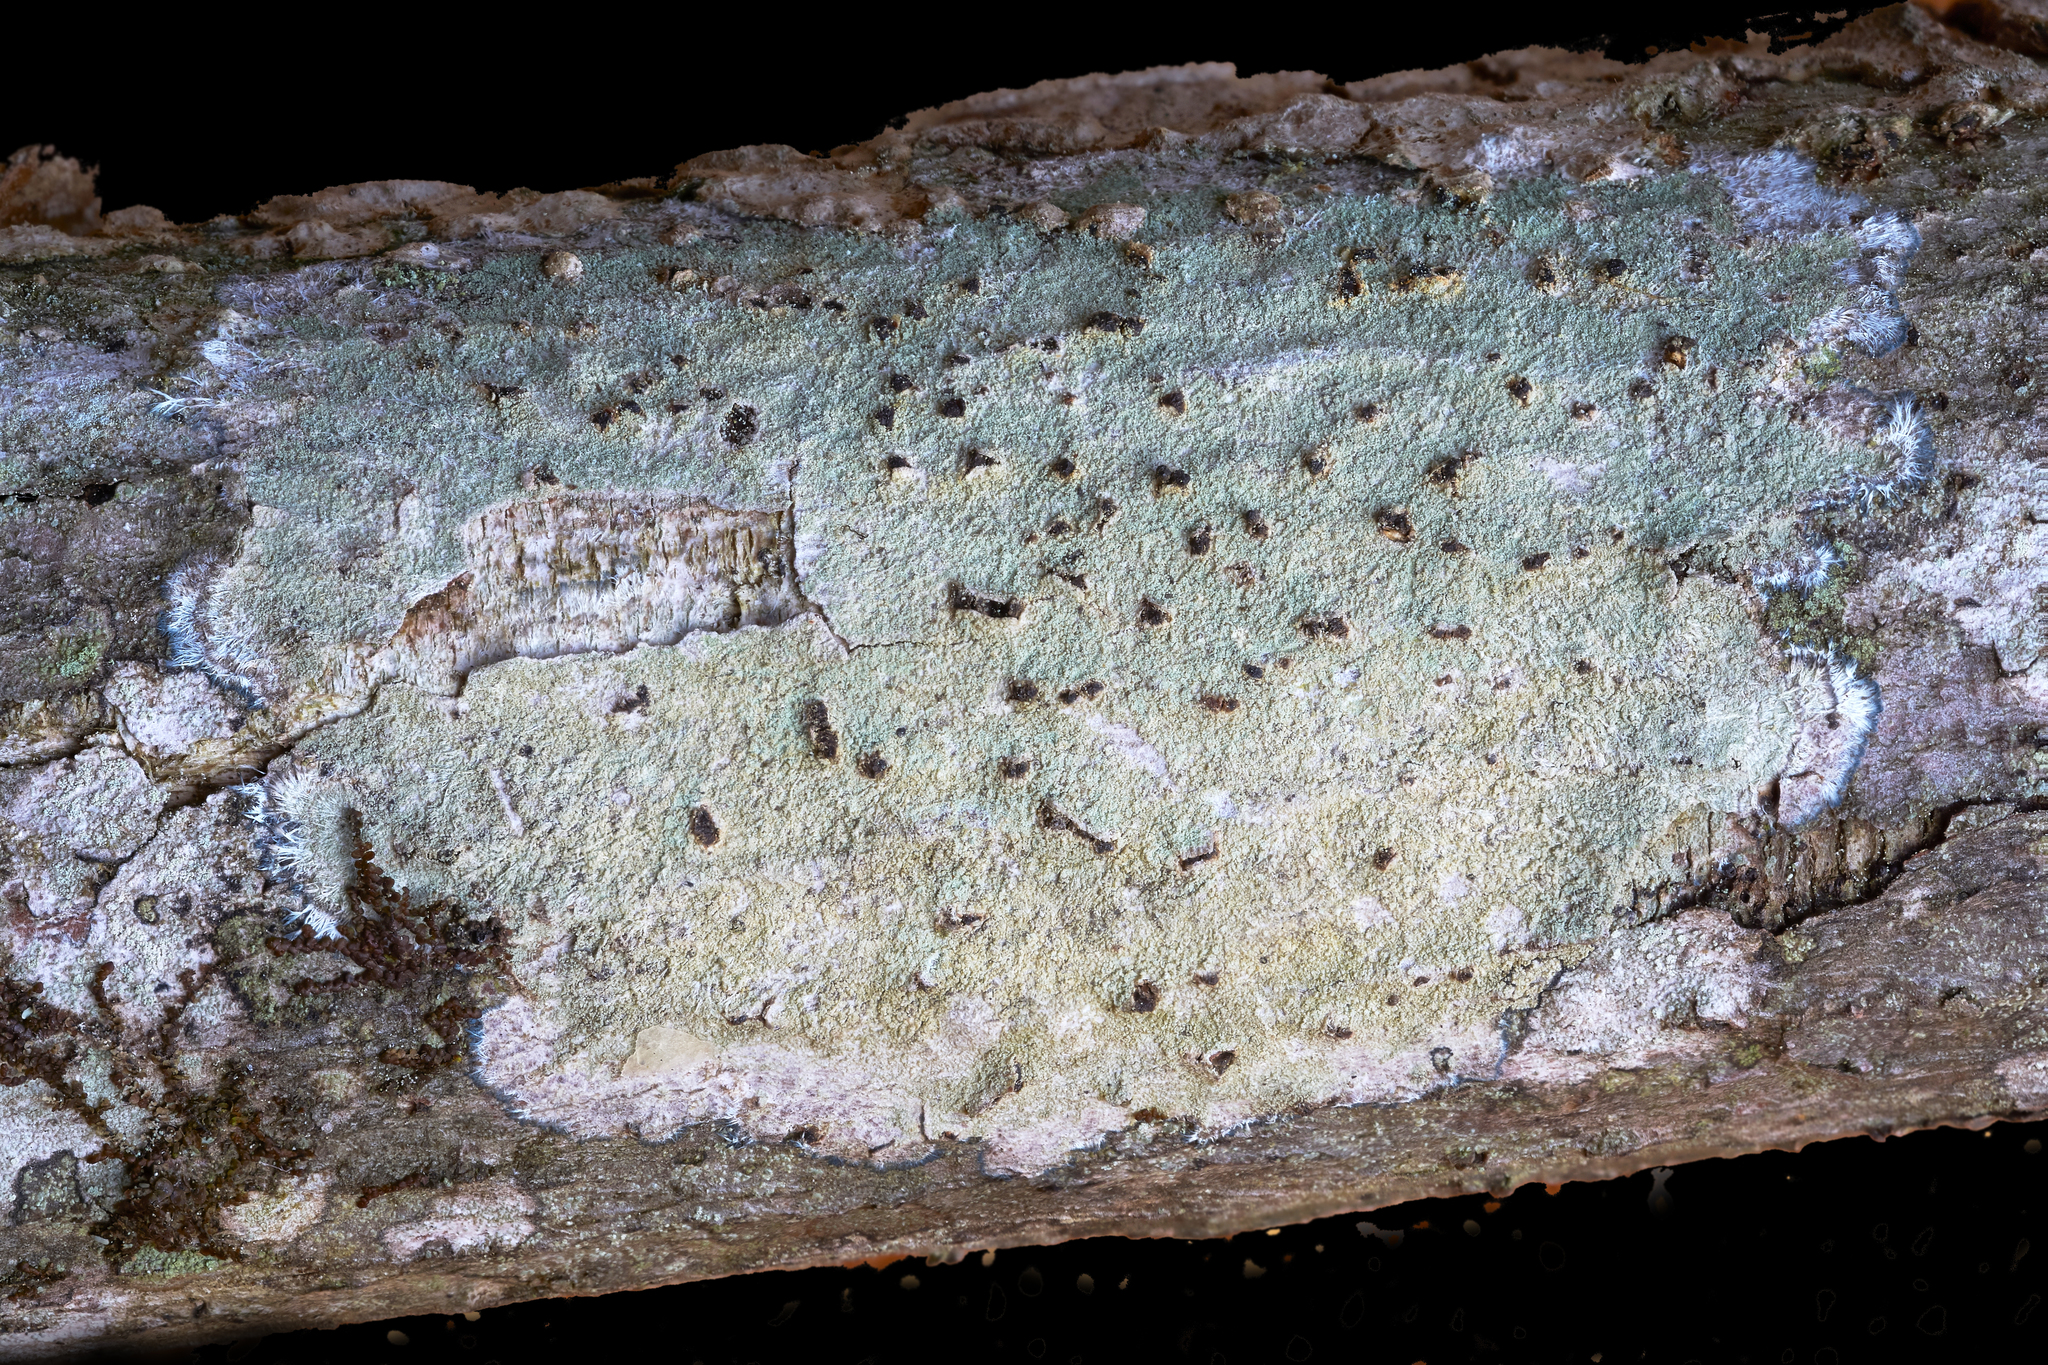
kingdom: Fungi
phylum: Ascomycota
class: Lecanoromycetes
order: Pertusariales
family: Pertusariaceae
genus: Verseghya
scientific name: Verseghya thysanophora
